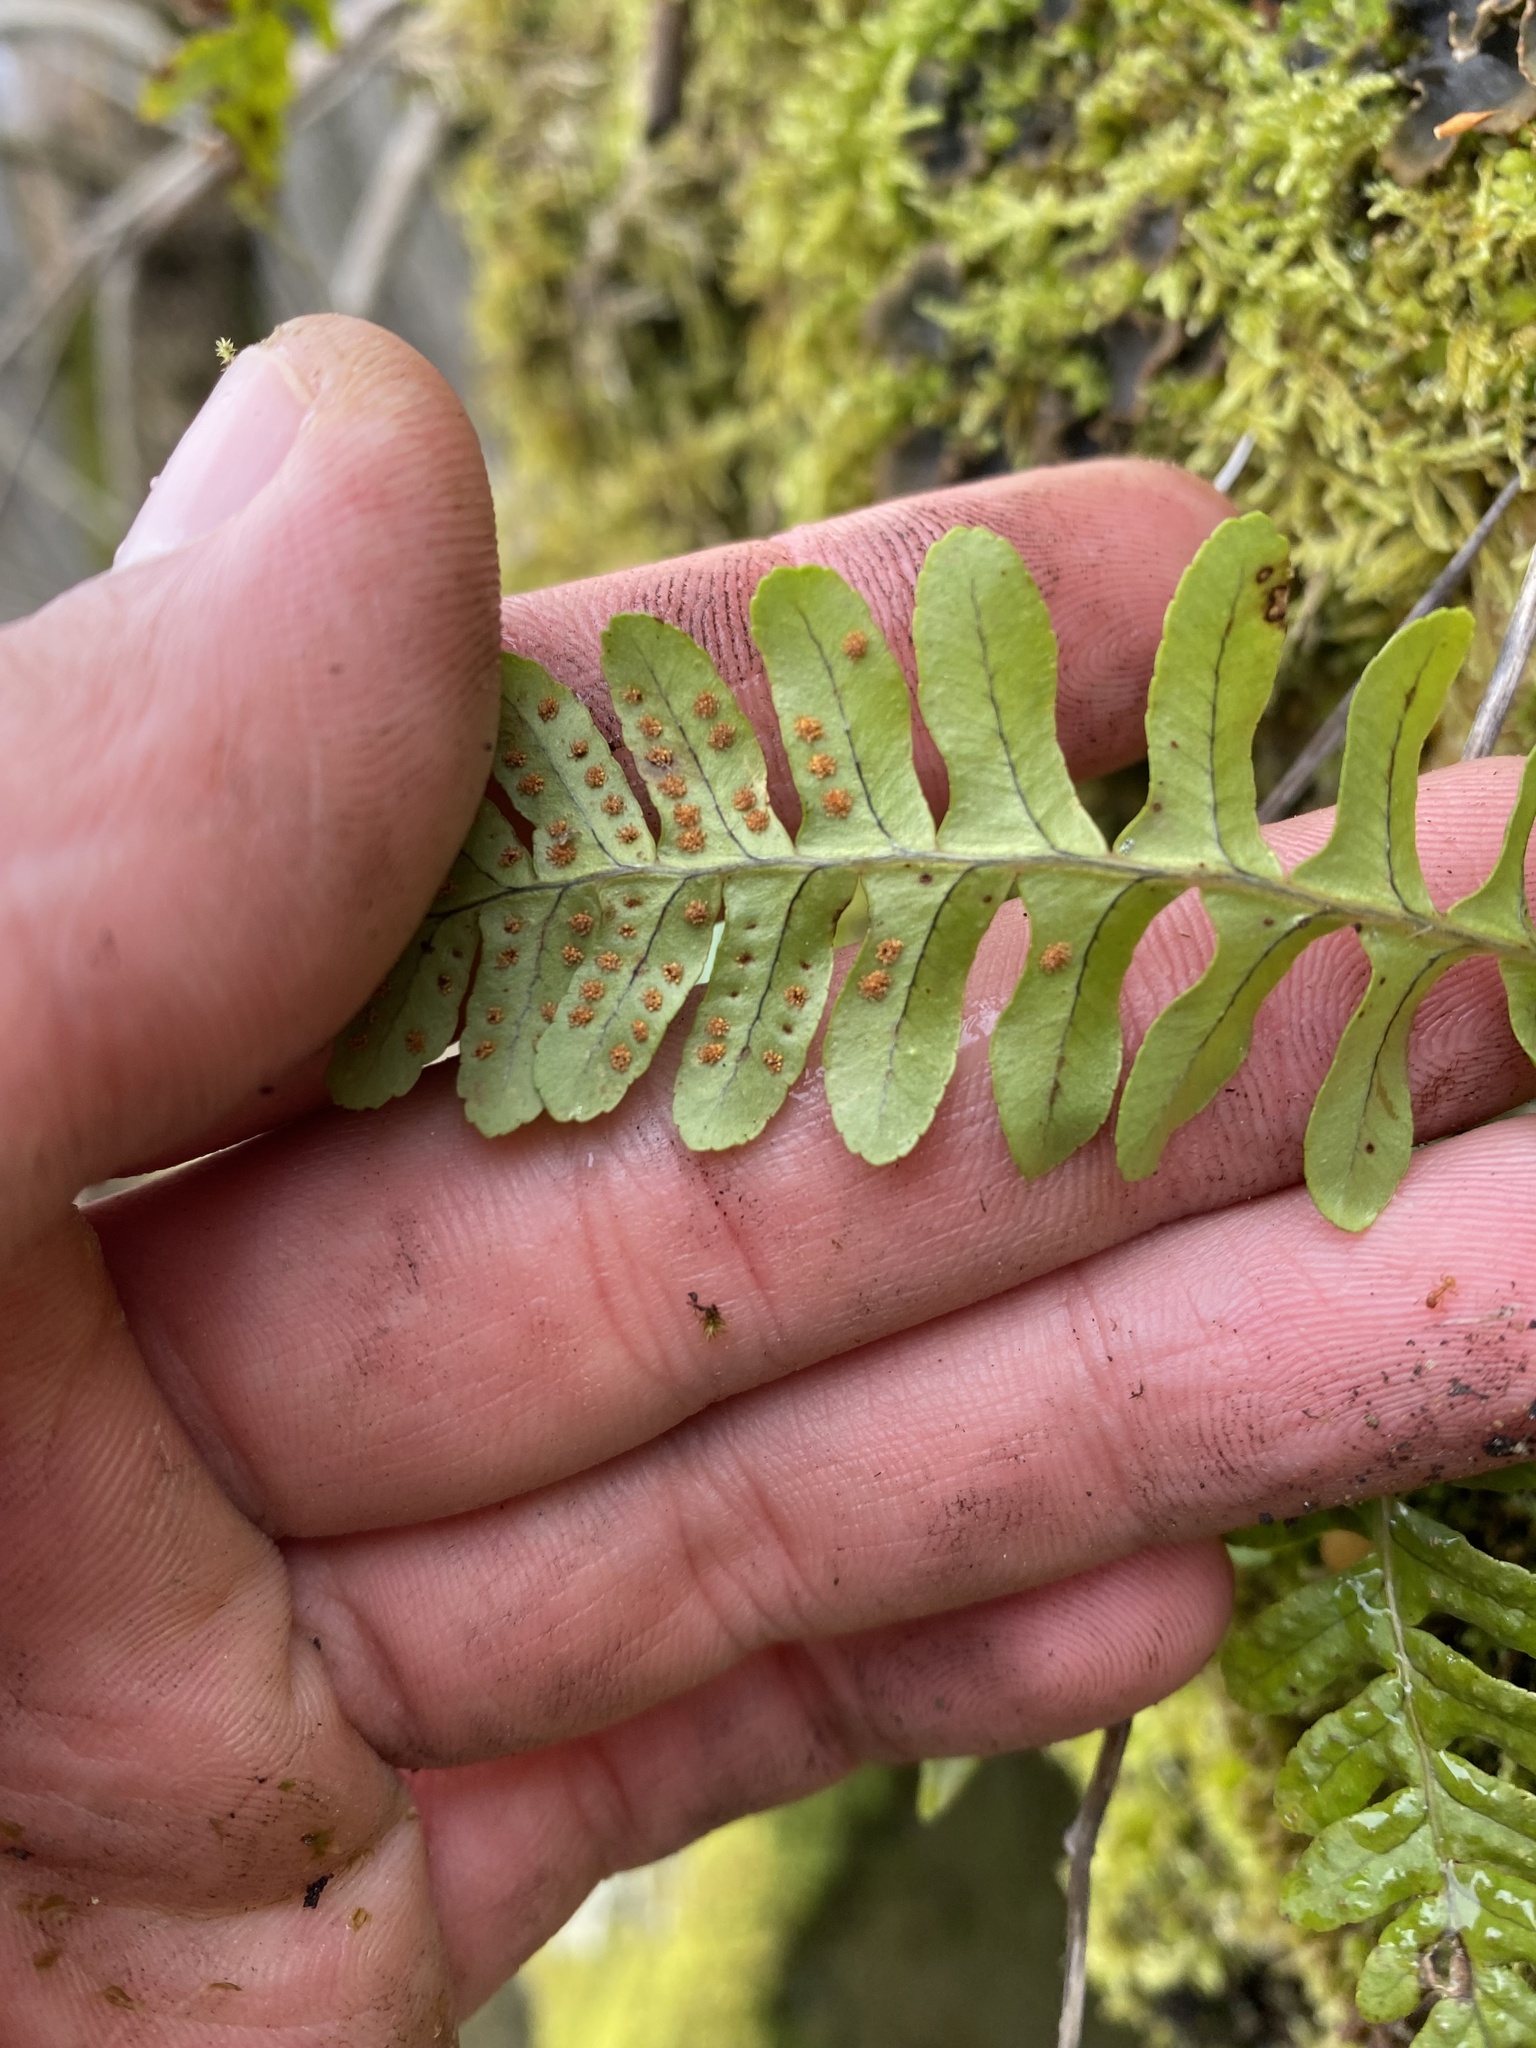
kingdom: Plantae
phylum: Tracheophyta
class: Polypodiopsida
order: Polypodiales
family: Polypodiaceae
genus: Polypodium
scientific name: Polypodium vulgare
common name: Common polypody
